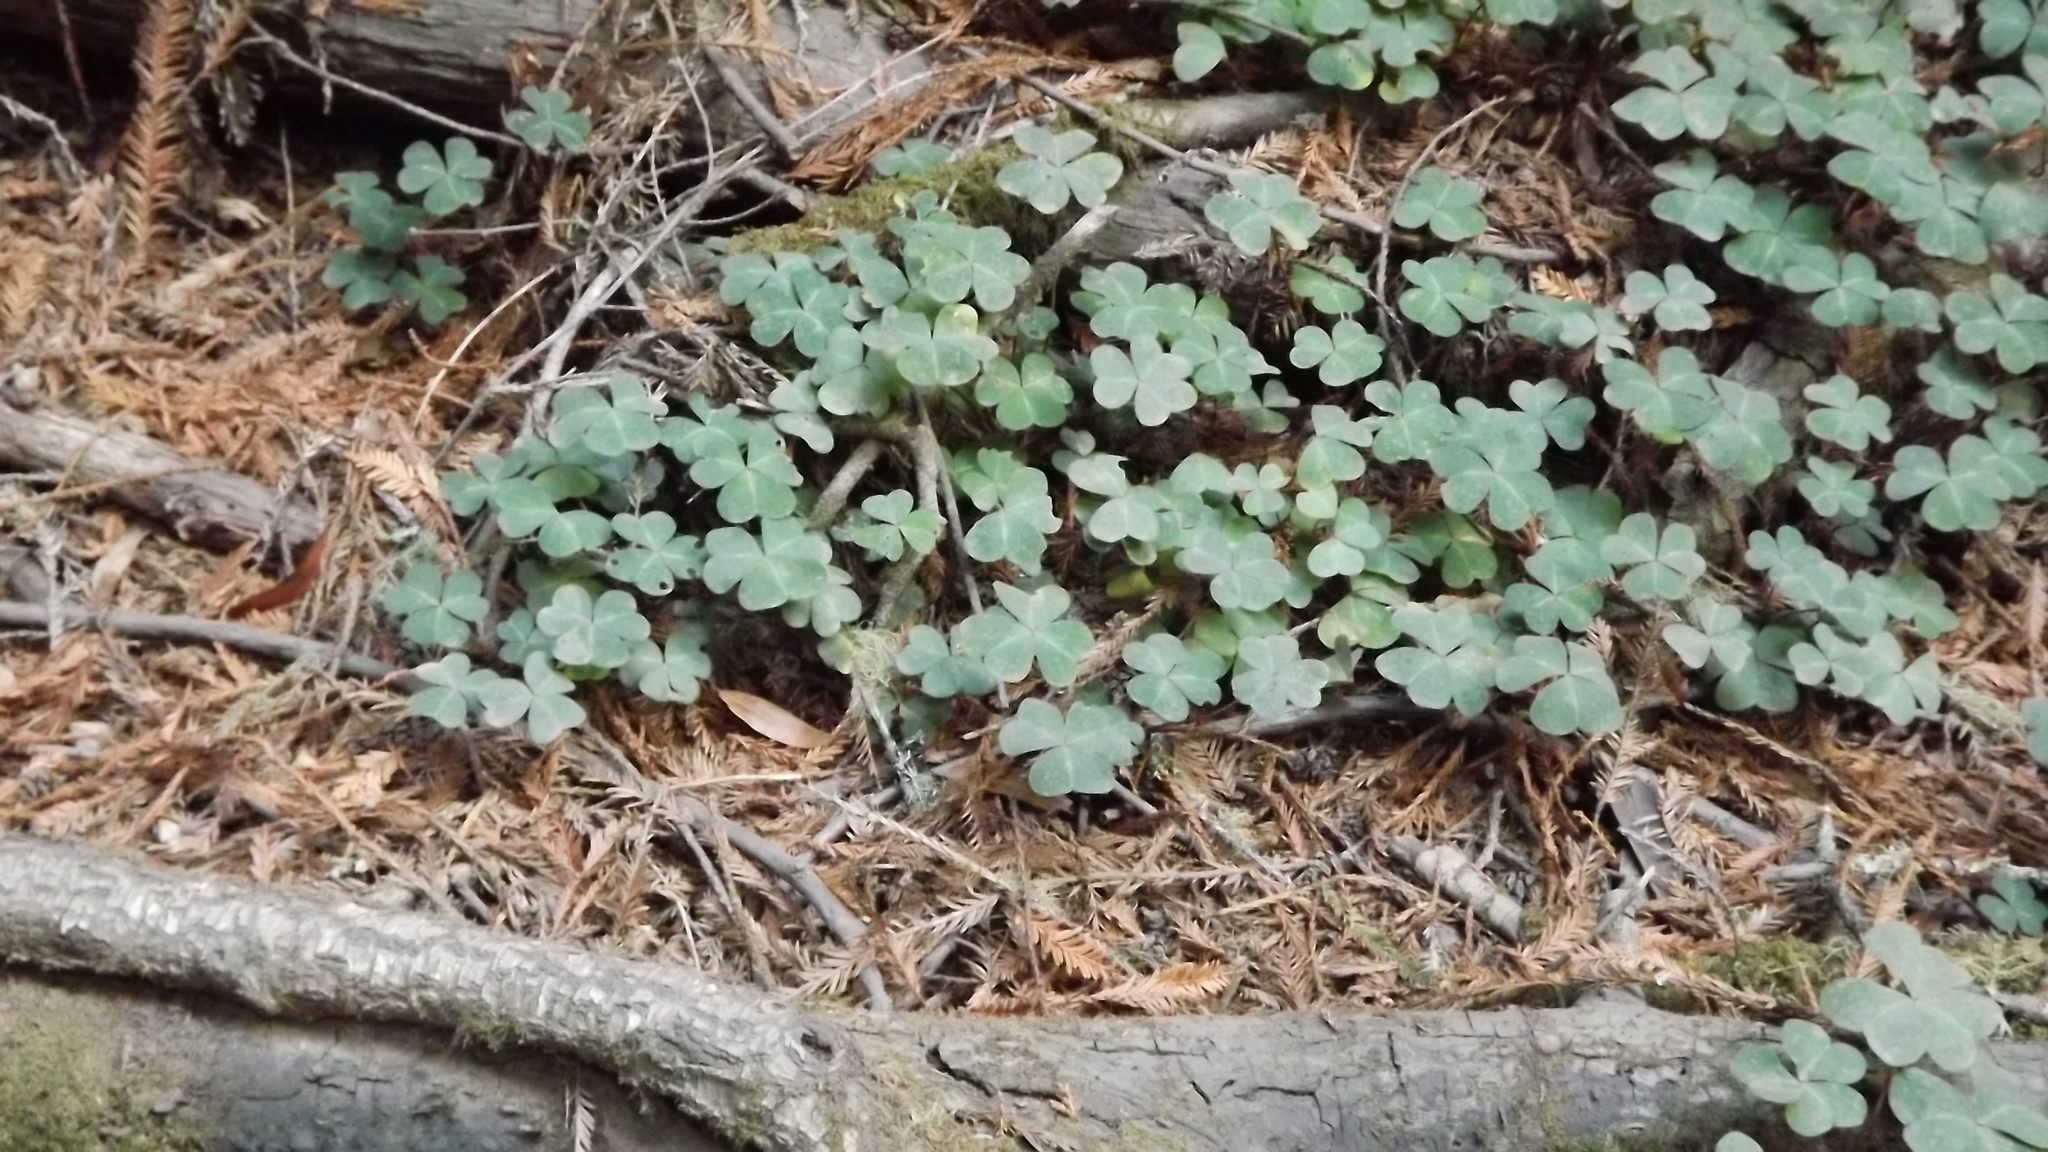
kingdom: Plantae
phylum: Tracheophyta
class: Magnoliopsida
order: Oxalidales
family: Oxalidaceae
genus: Oxalis
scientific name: Oxalis oregana
